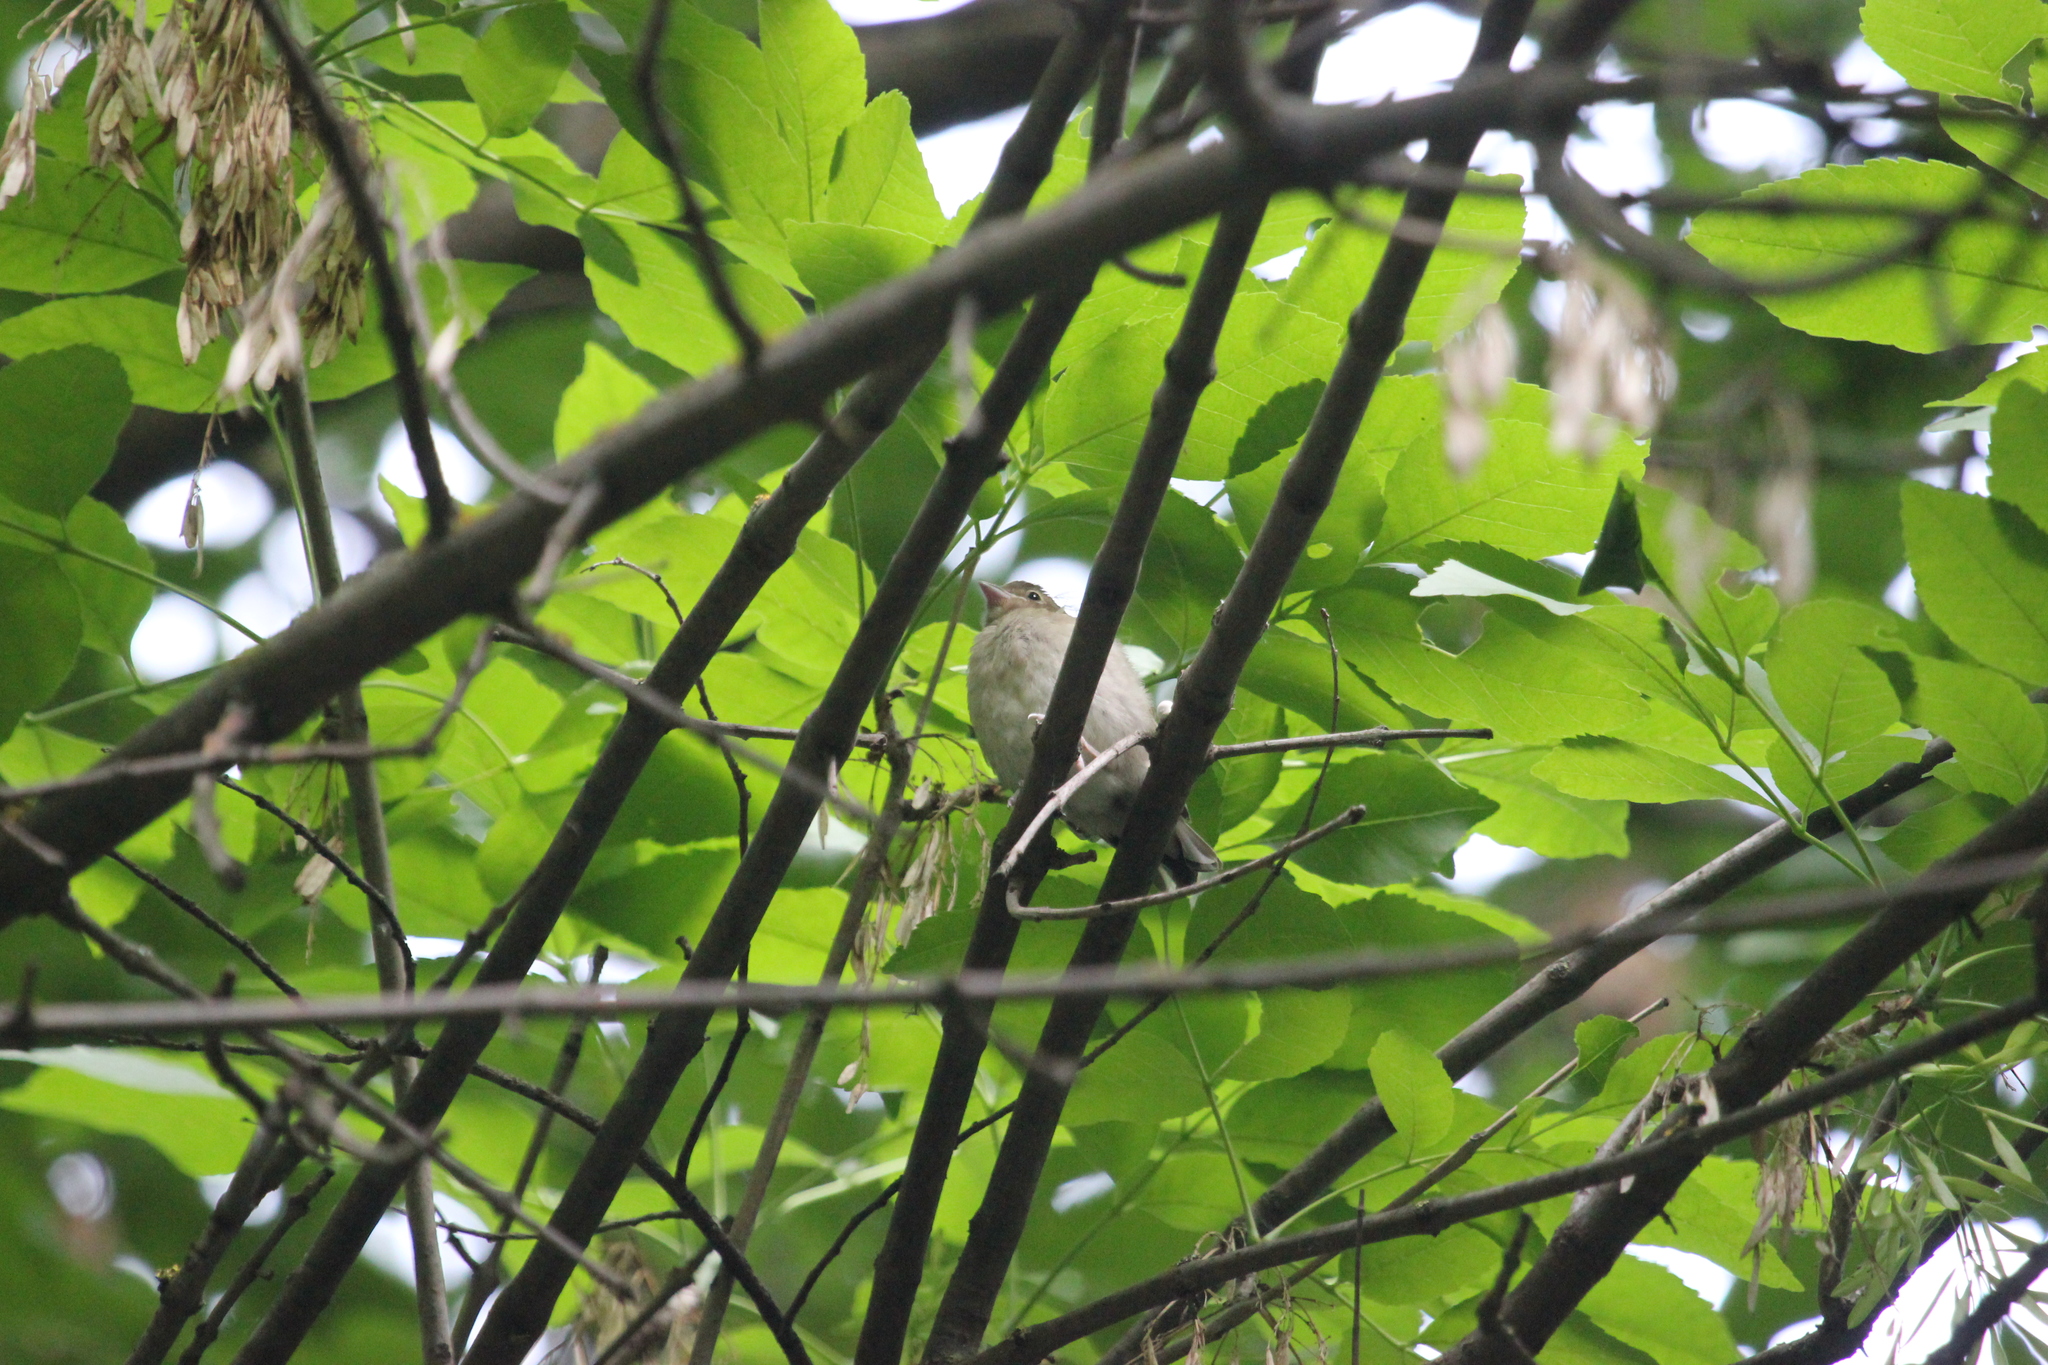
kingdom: Animalia
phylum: Chordata
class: Aves
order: Passeriformes
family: Fringillidae
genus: Fringilla
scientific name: Fringilla coelebs
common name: Common chaffinch
